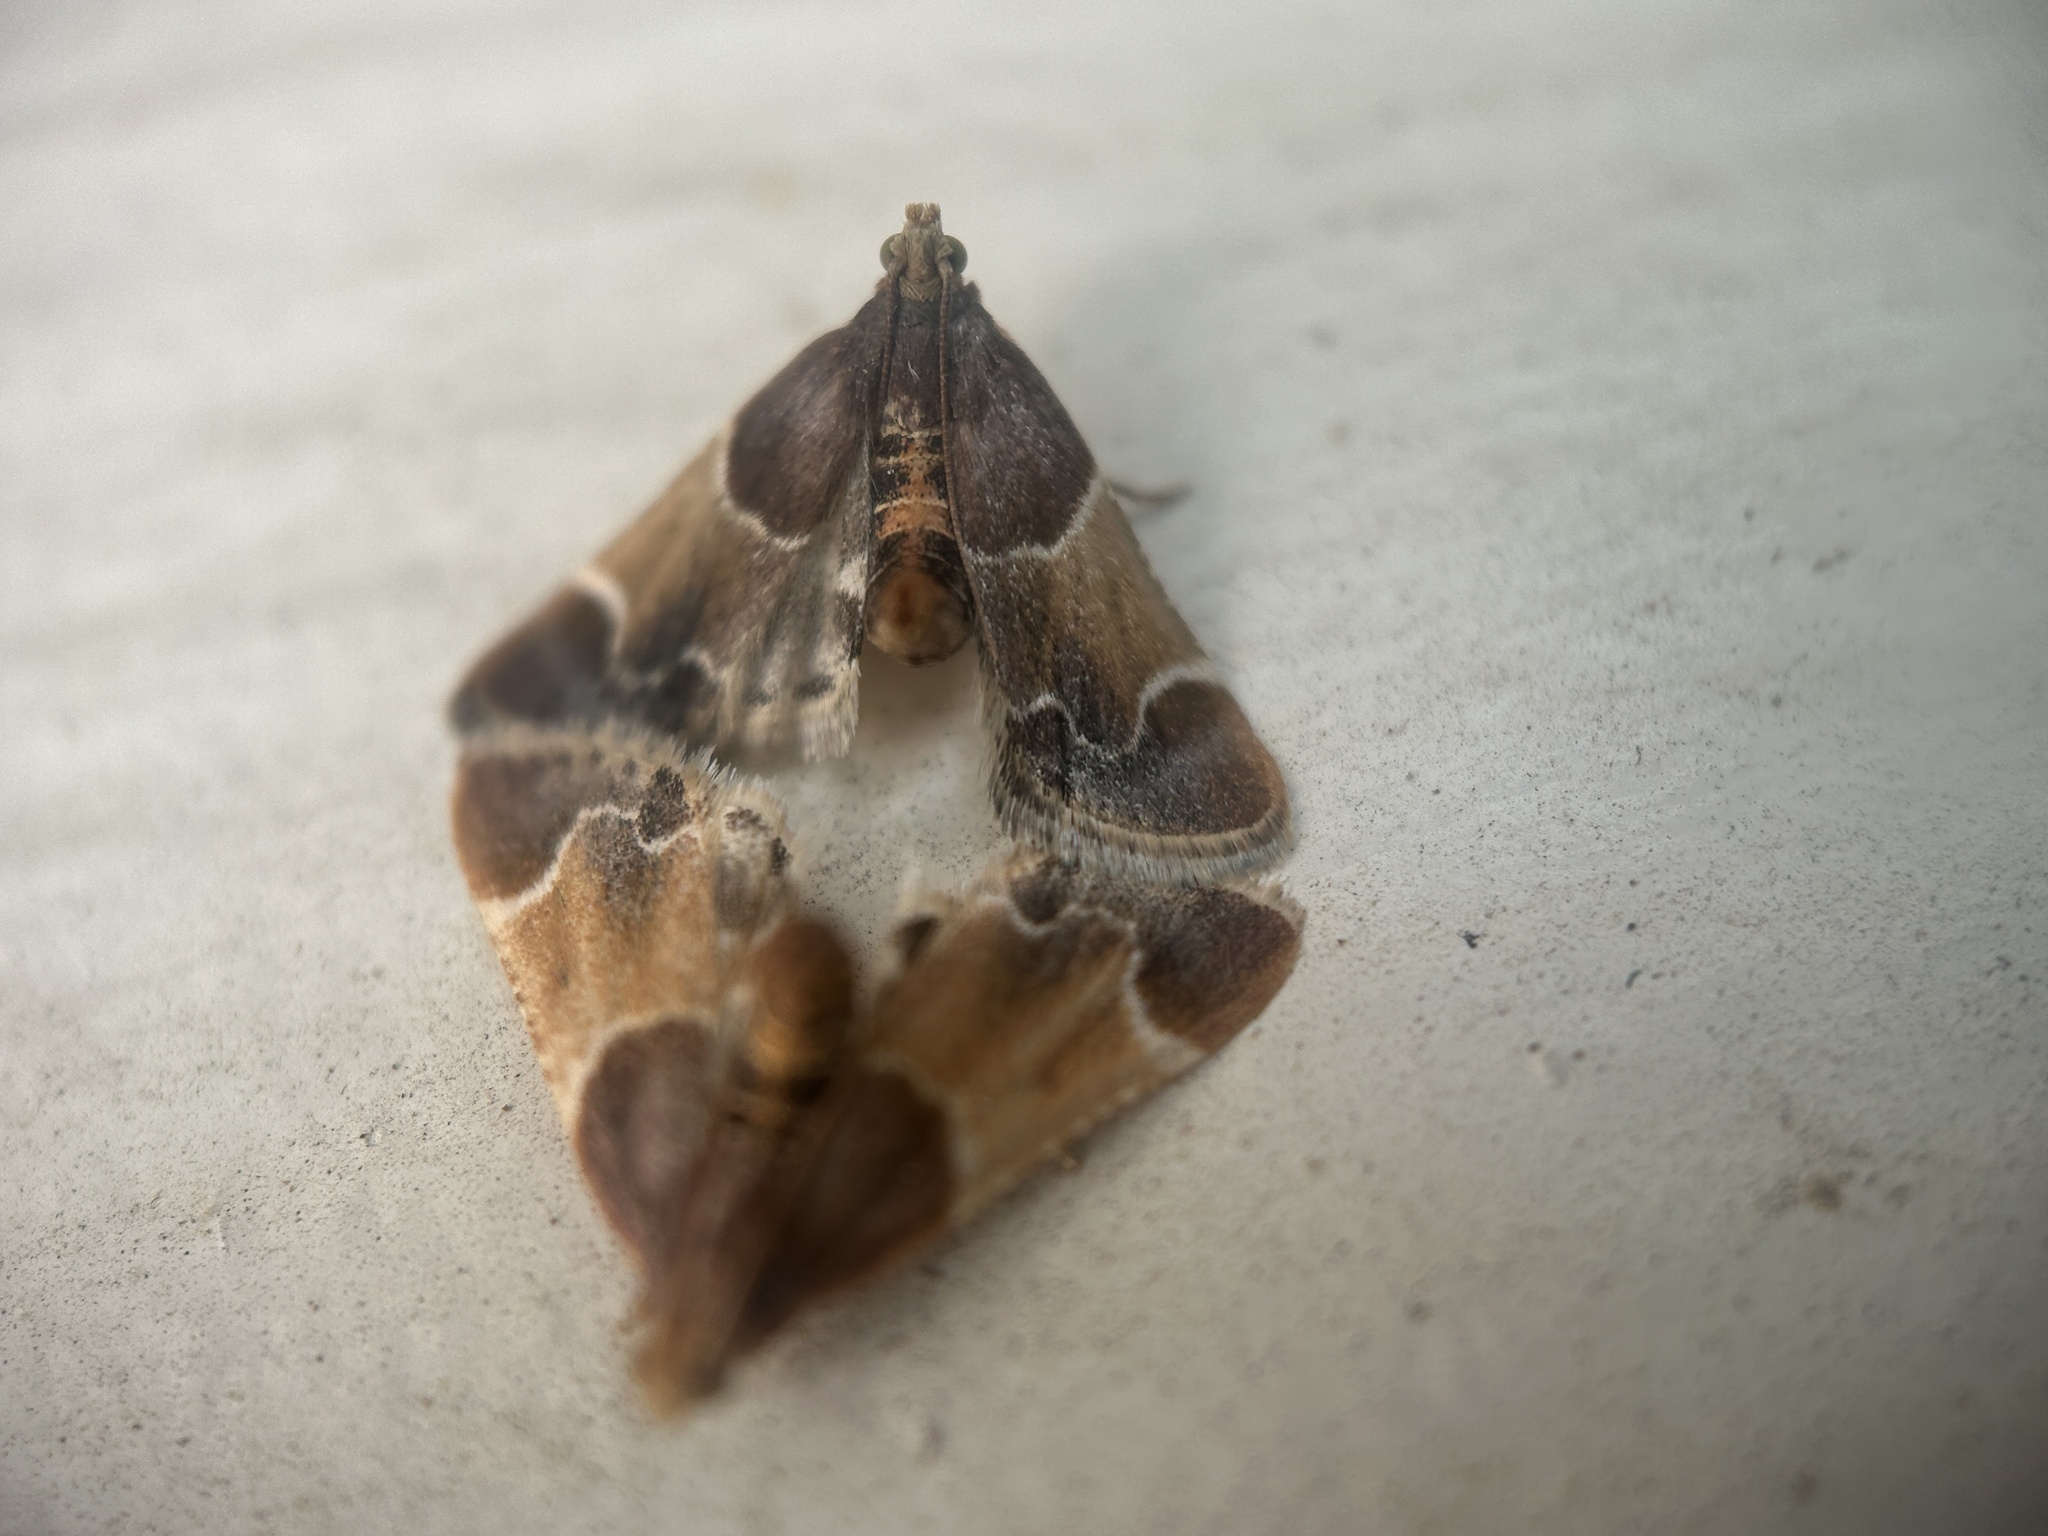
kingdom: Animalia
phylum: Arthropoda
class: Insecta
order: Lepidoptera
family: Pyralidae
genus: Pyralis
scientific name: Pyralis farinalis
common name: Meal moth
